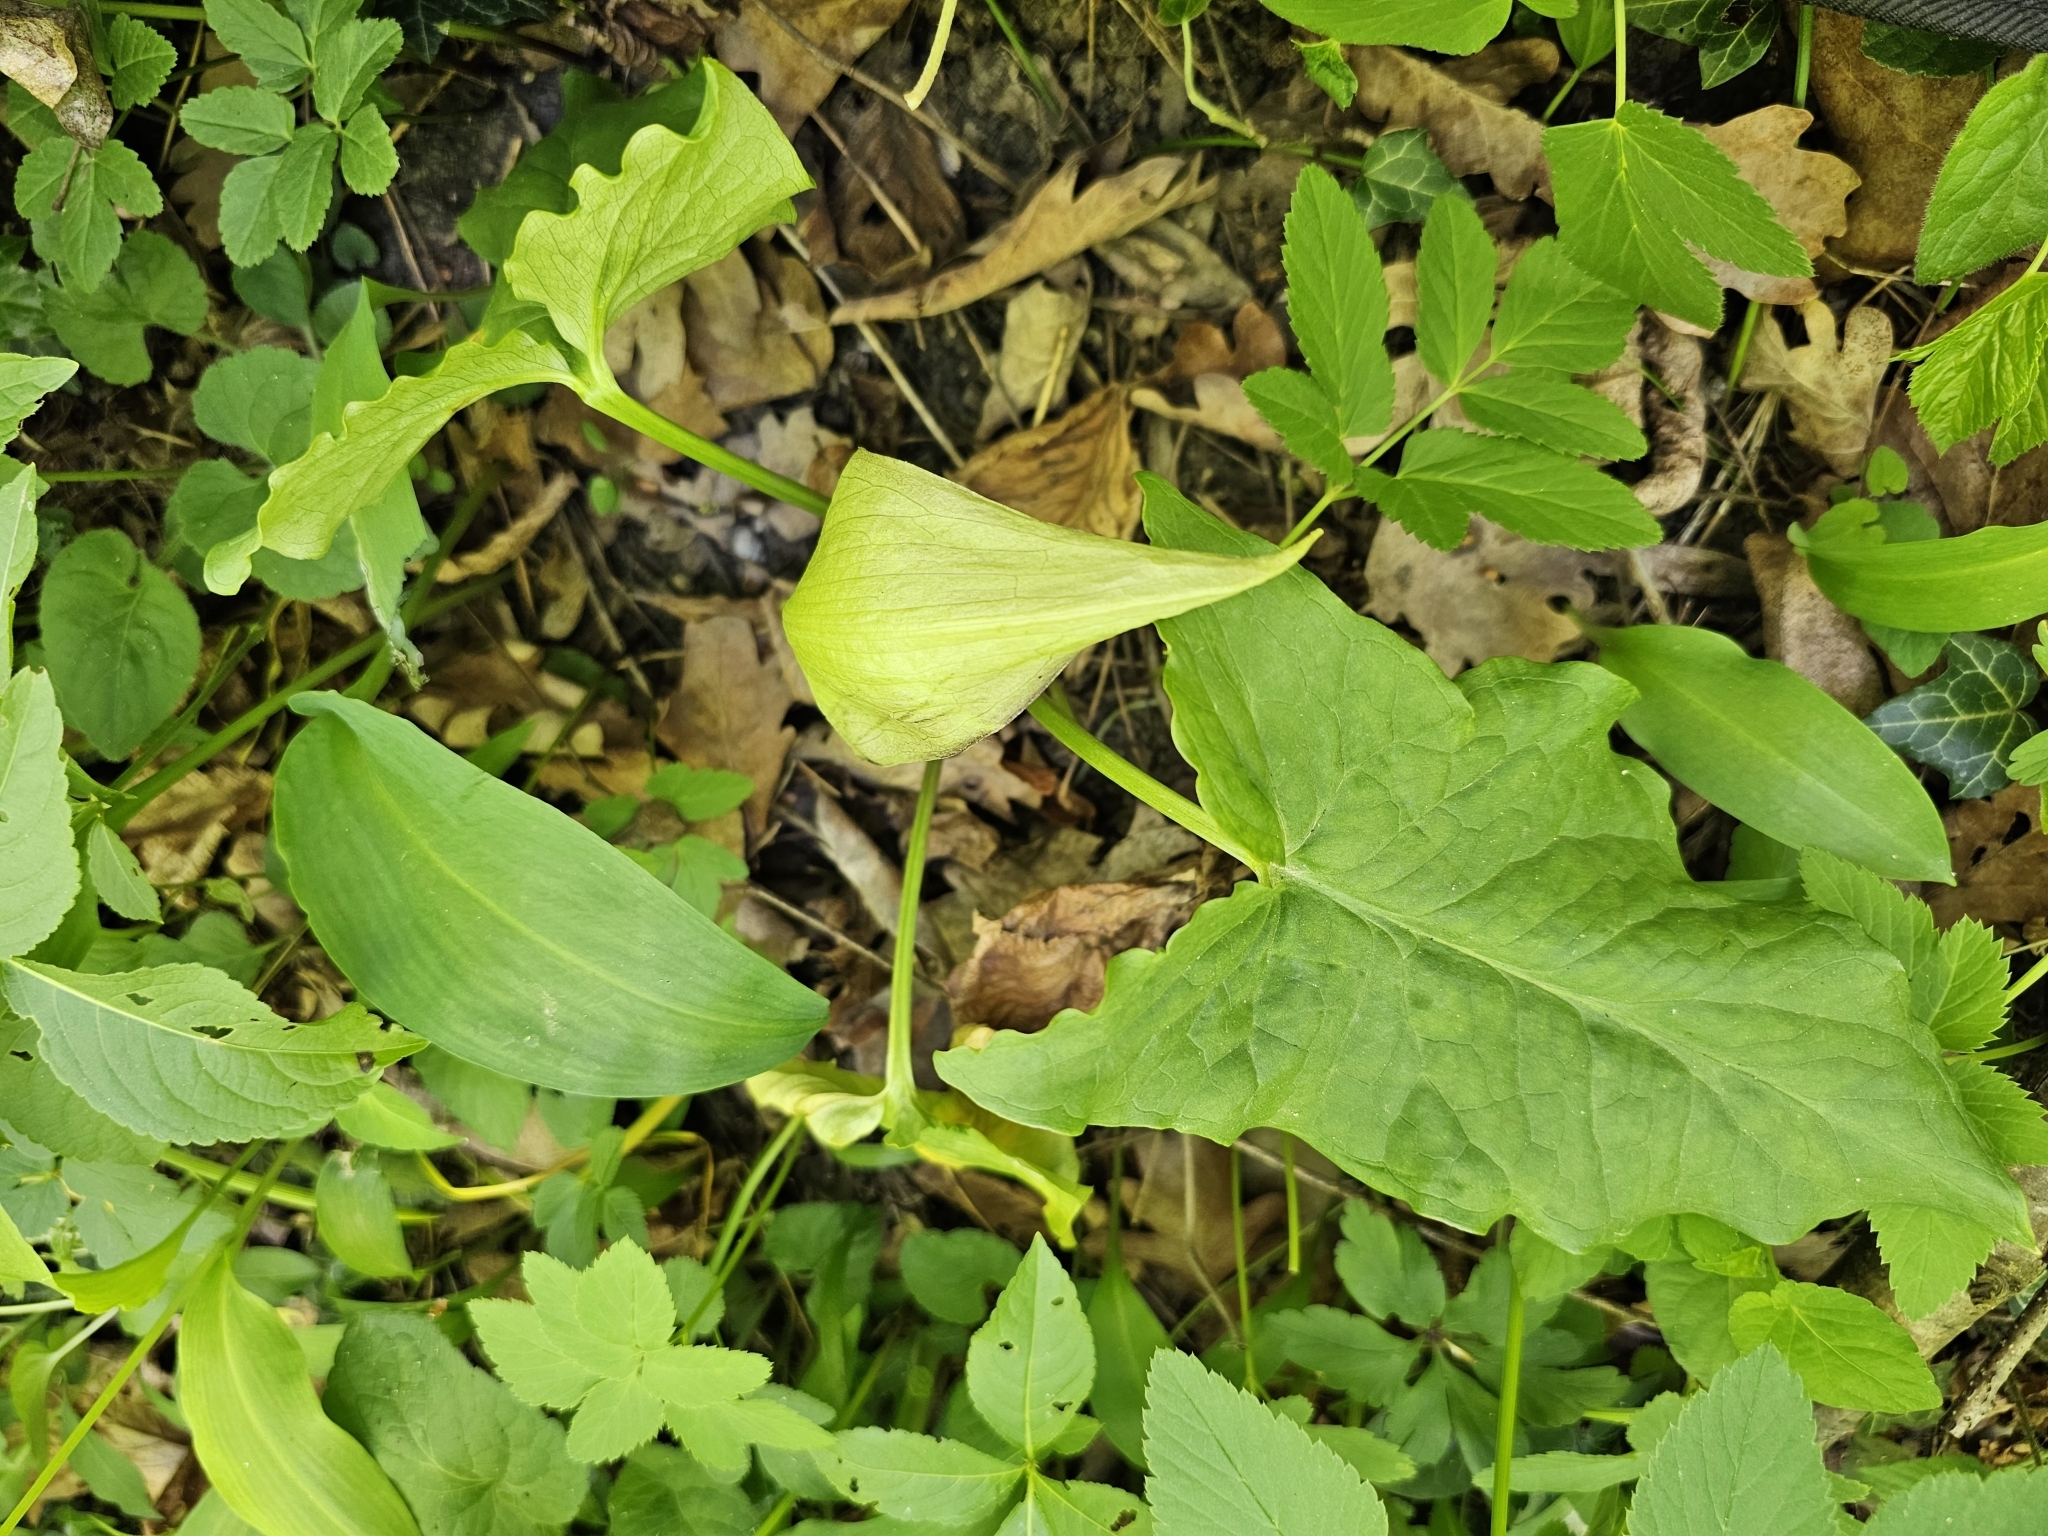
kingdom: Plantae
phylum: Tracheophyta
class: Liliopsida
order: Alismatales
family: Araceae
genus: Arum
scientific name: Arum maculatum
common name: Lords-and-ladies
